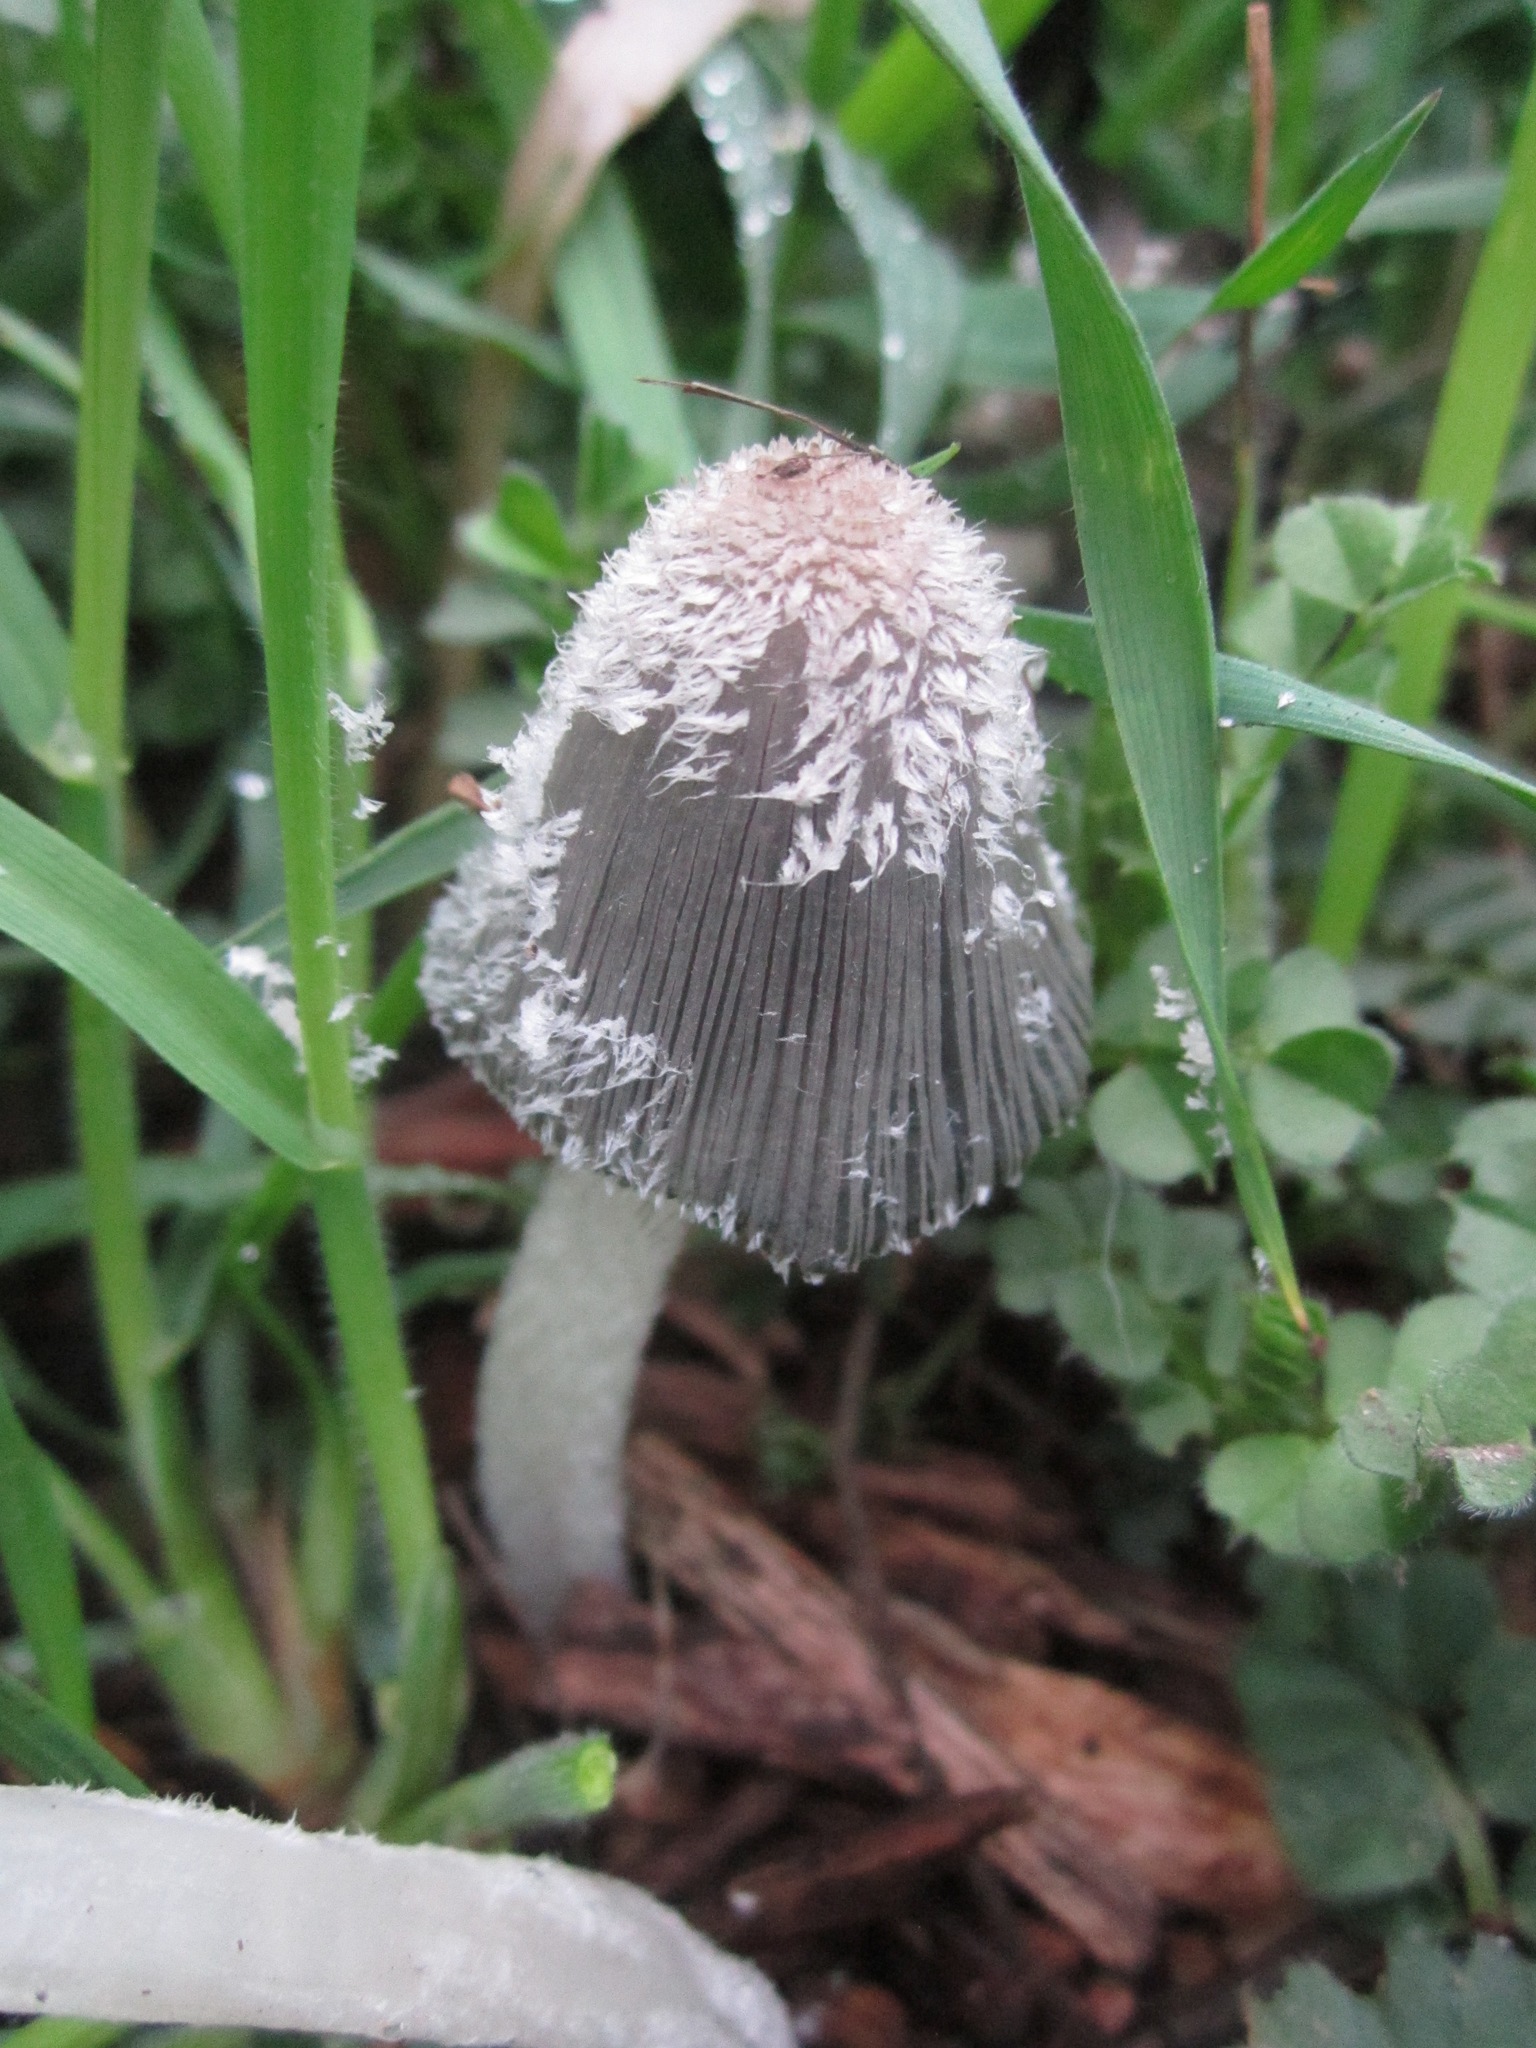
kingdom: Fungi
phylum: Basidiomycota
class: Agaricomycetes
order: Agaricales
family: Psathyrellaceae
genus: Coprinopsis
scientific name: Coprinopsis lagopus
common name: Hare'sfoot inkcap
